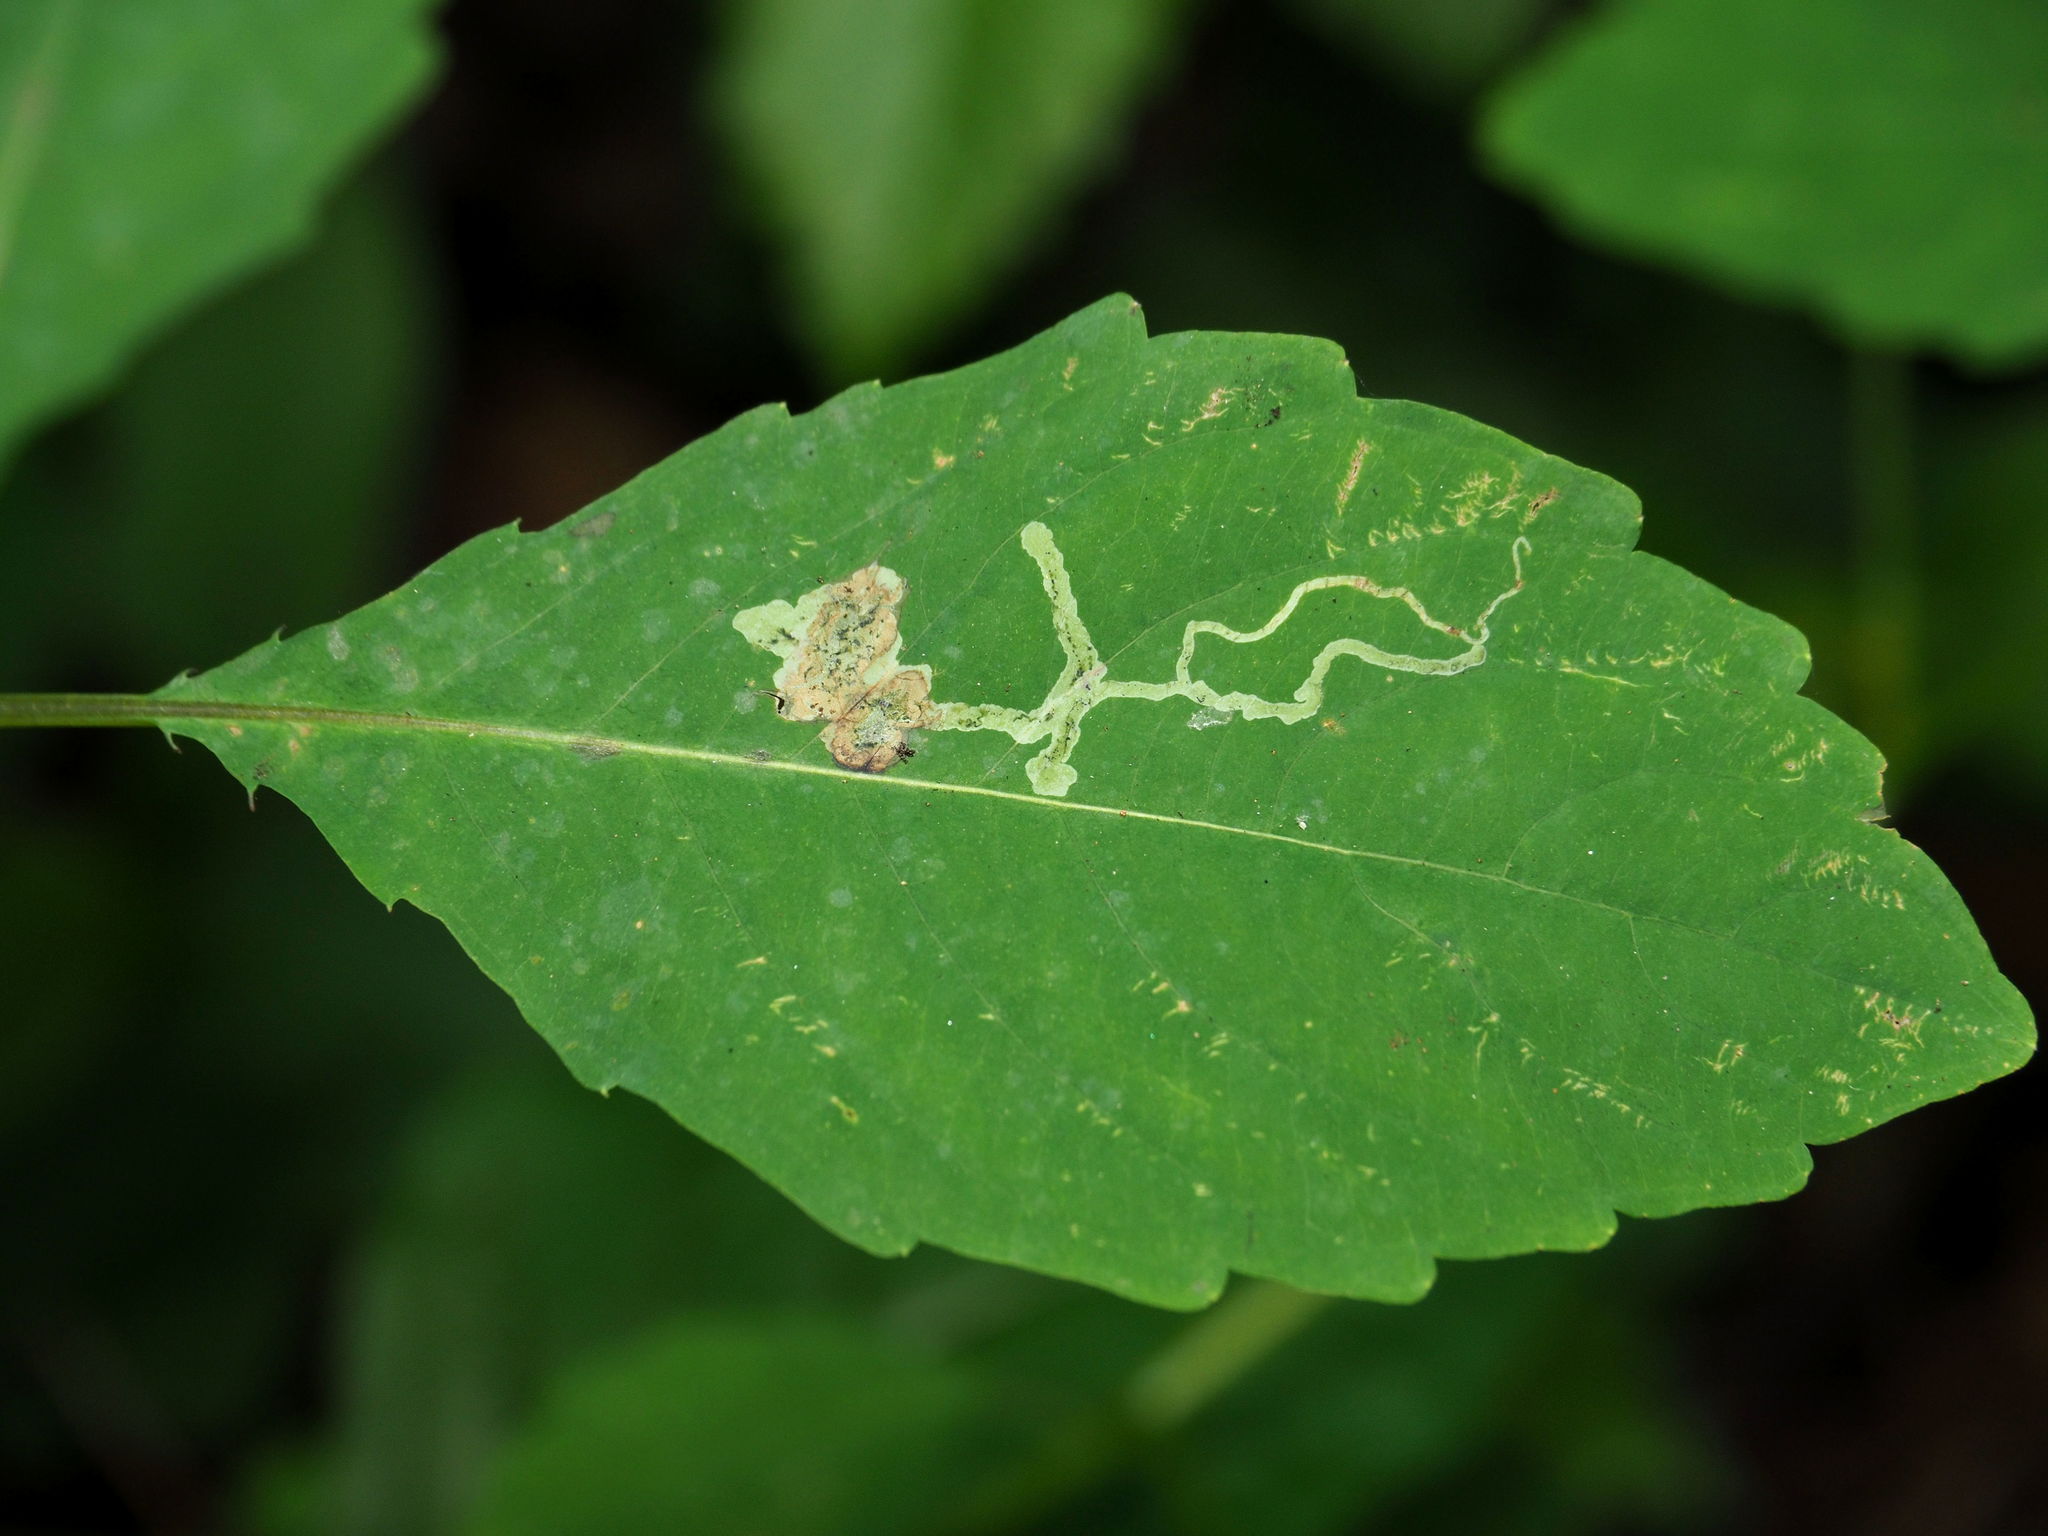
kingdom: Animalia
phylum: Arthropoda
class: Insecta
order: Diptera
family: Agromyzidae
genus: Phytoliriomyza
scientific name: Phytoliriomyza melampyga
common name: Jewelweed leaf-miner fly
